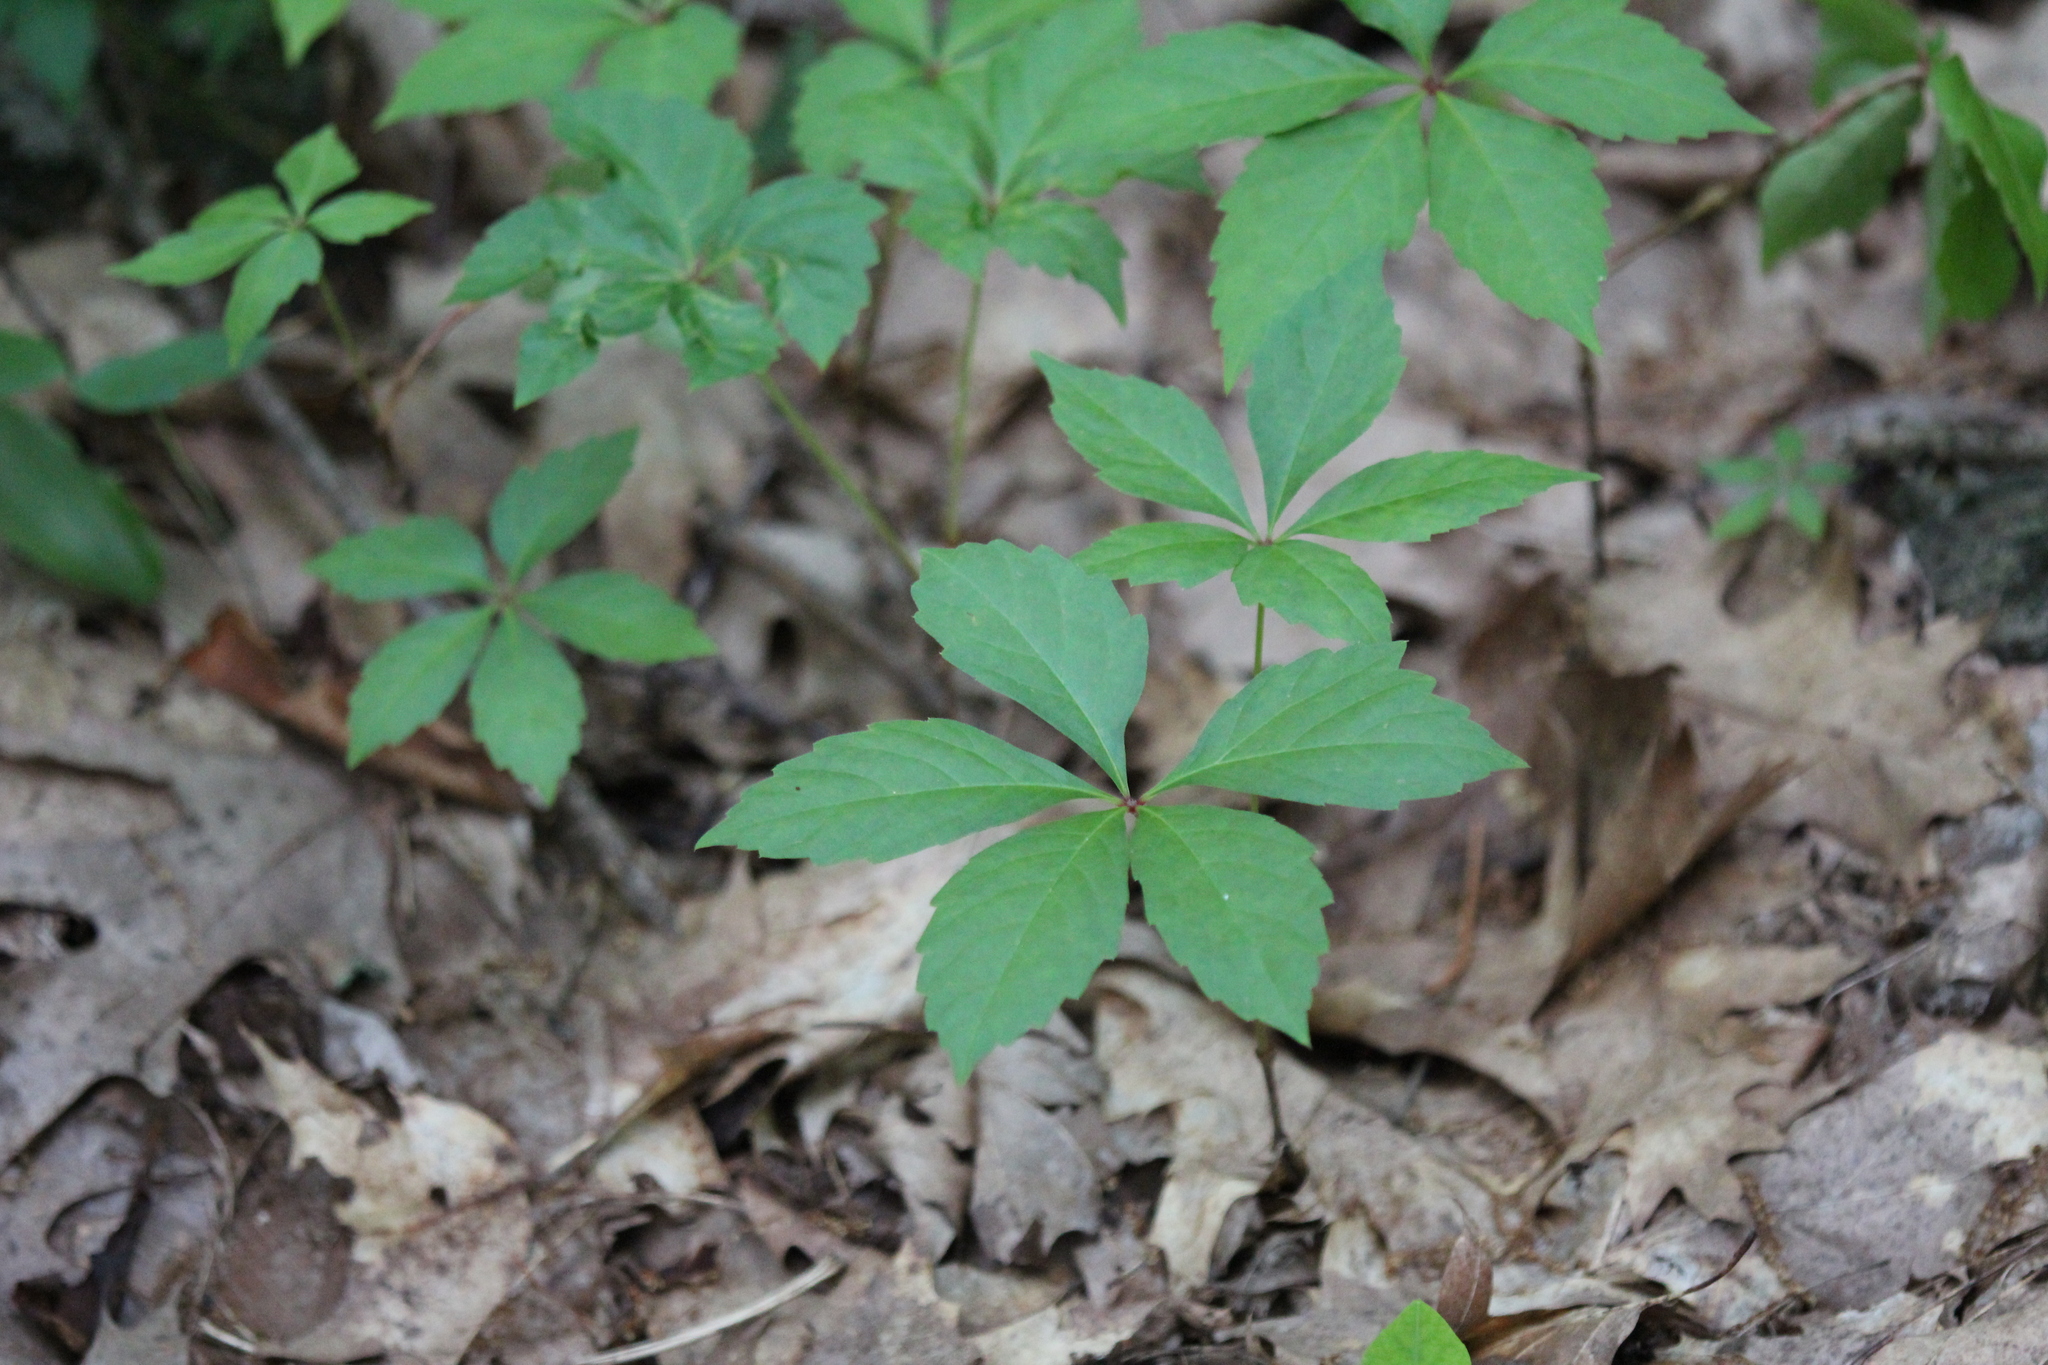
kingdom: Plantae
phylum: Tracheophyta
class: Magnoliopsida
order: Vitales
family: Vitaceae
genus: Parthenocissus
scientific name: Parthenocissus quinquefolia
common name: Virginia-creeper
